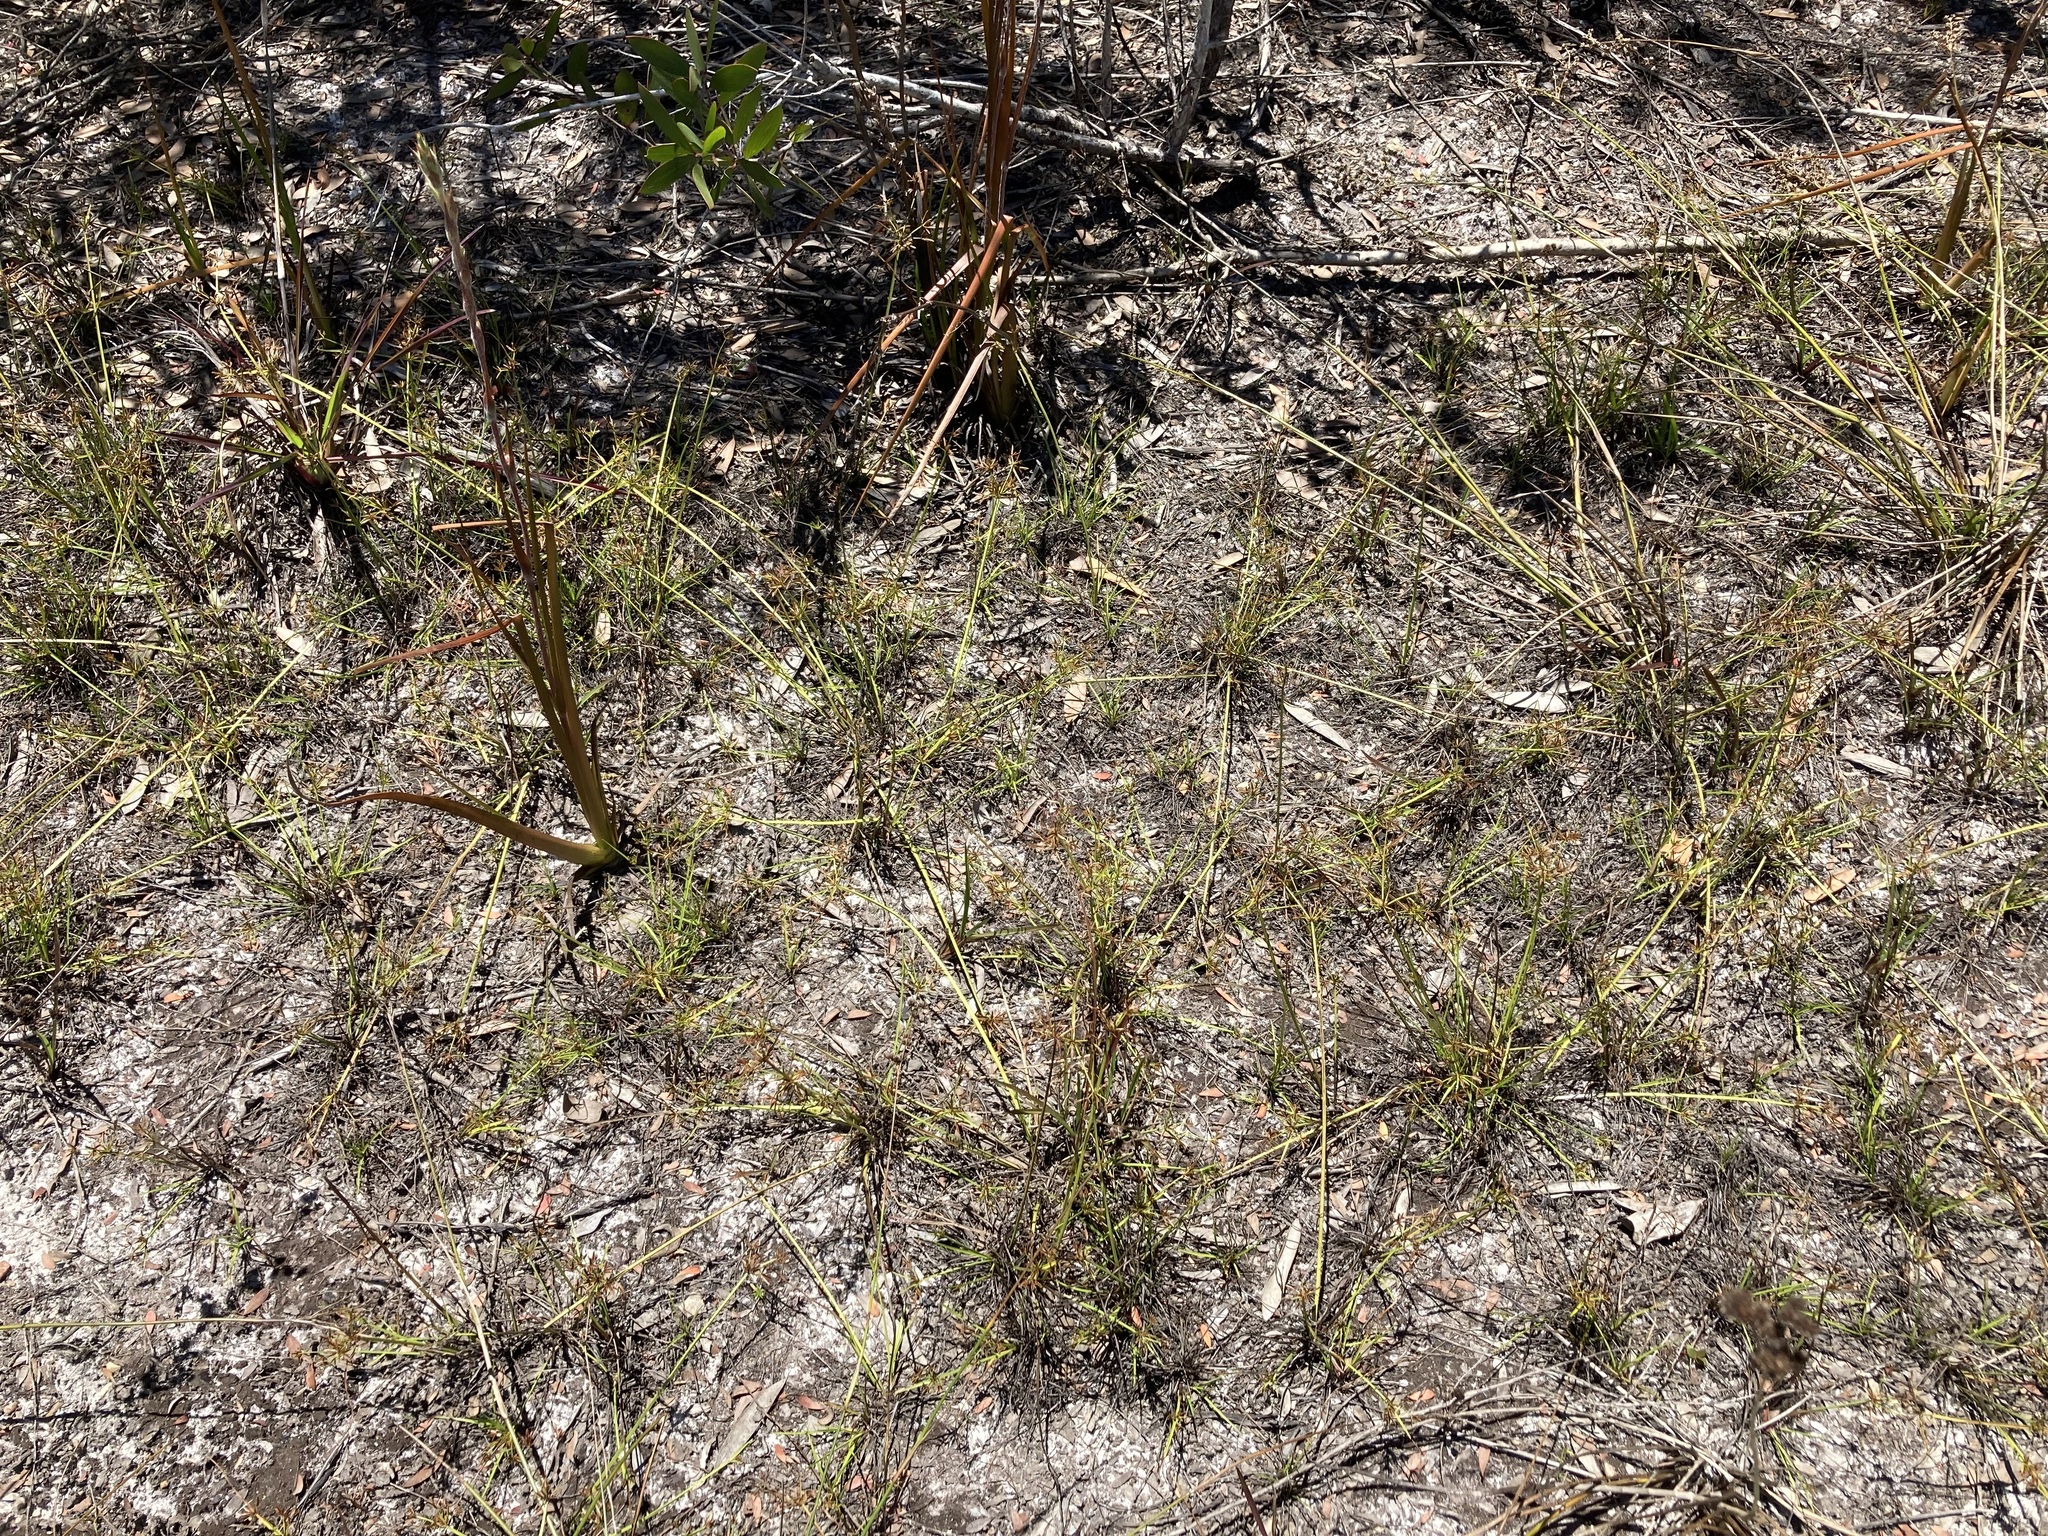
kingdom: Plantae
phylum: Tracheophyta
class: Liliopsida
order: Poales
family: Cyperaceae
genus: Cyperus
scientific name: Cyperus haspan
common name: Haspan flatsedge
